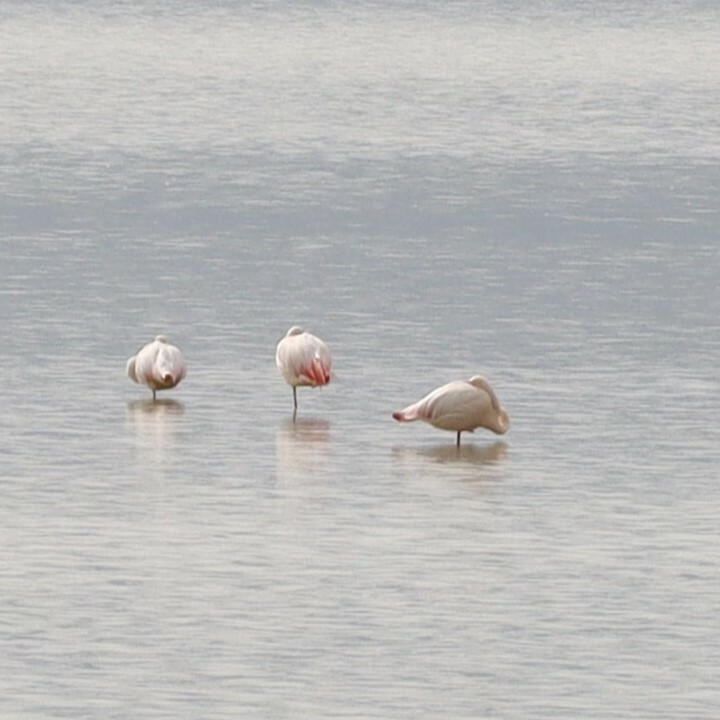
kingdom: Animalia
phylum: Chordata
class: Aves
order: Phoenicopteriformes
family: Phoenicopteridae
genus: Phoenicopterus
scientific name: Phoenicopterus roseus
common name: Greater flamingo
